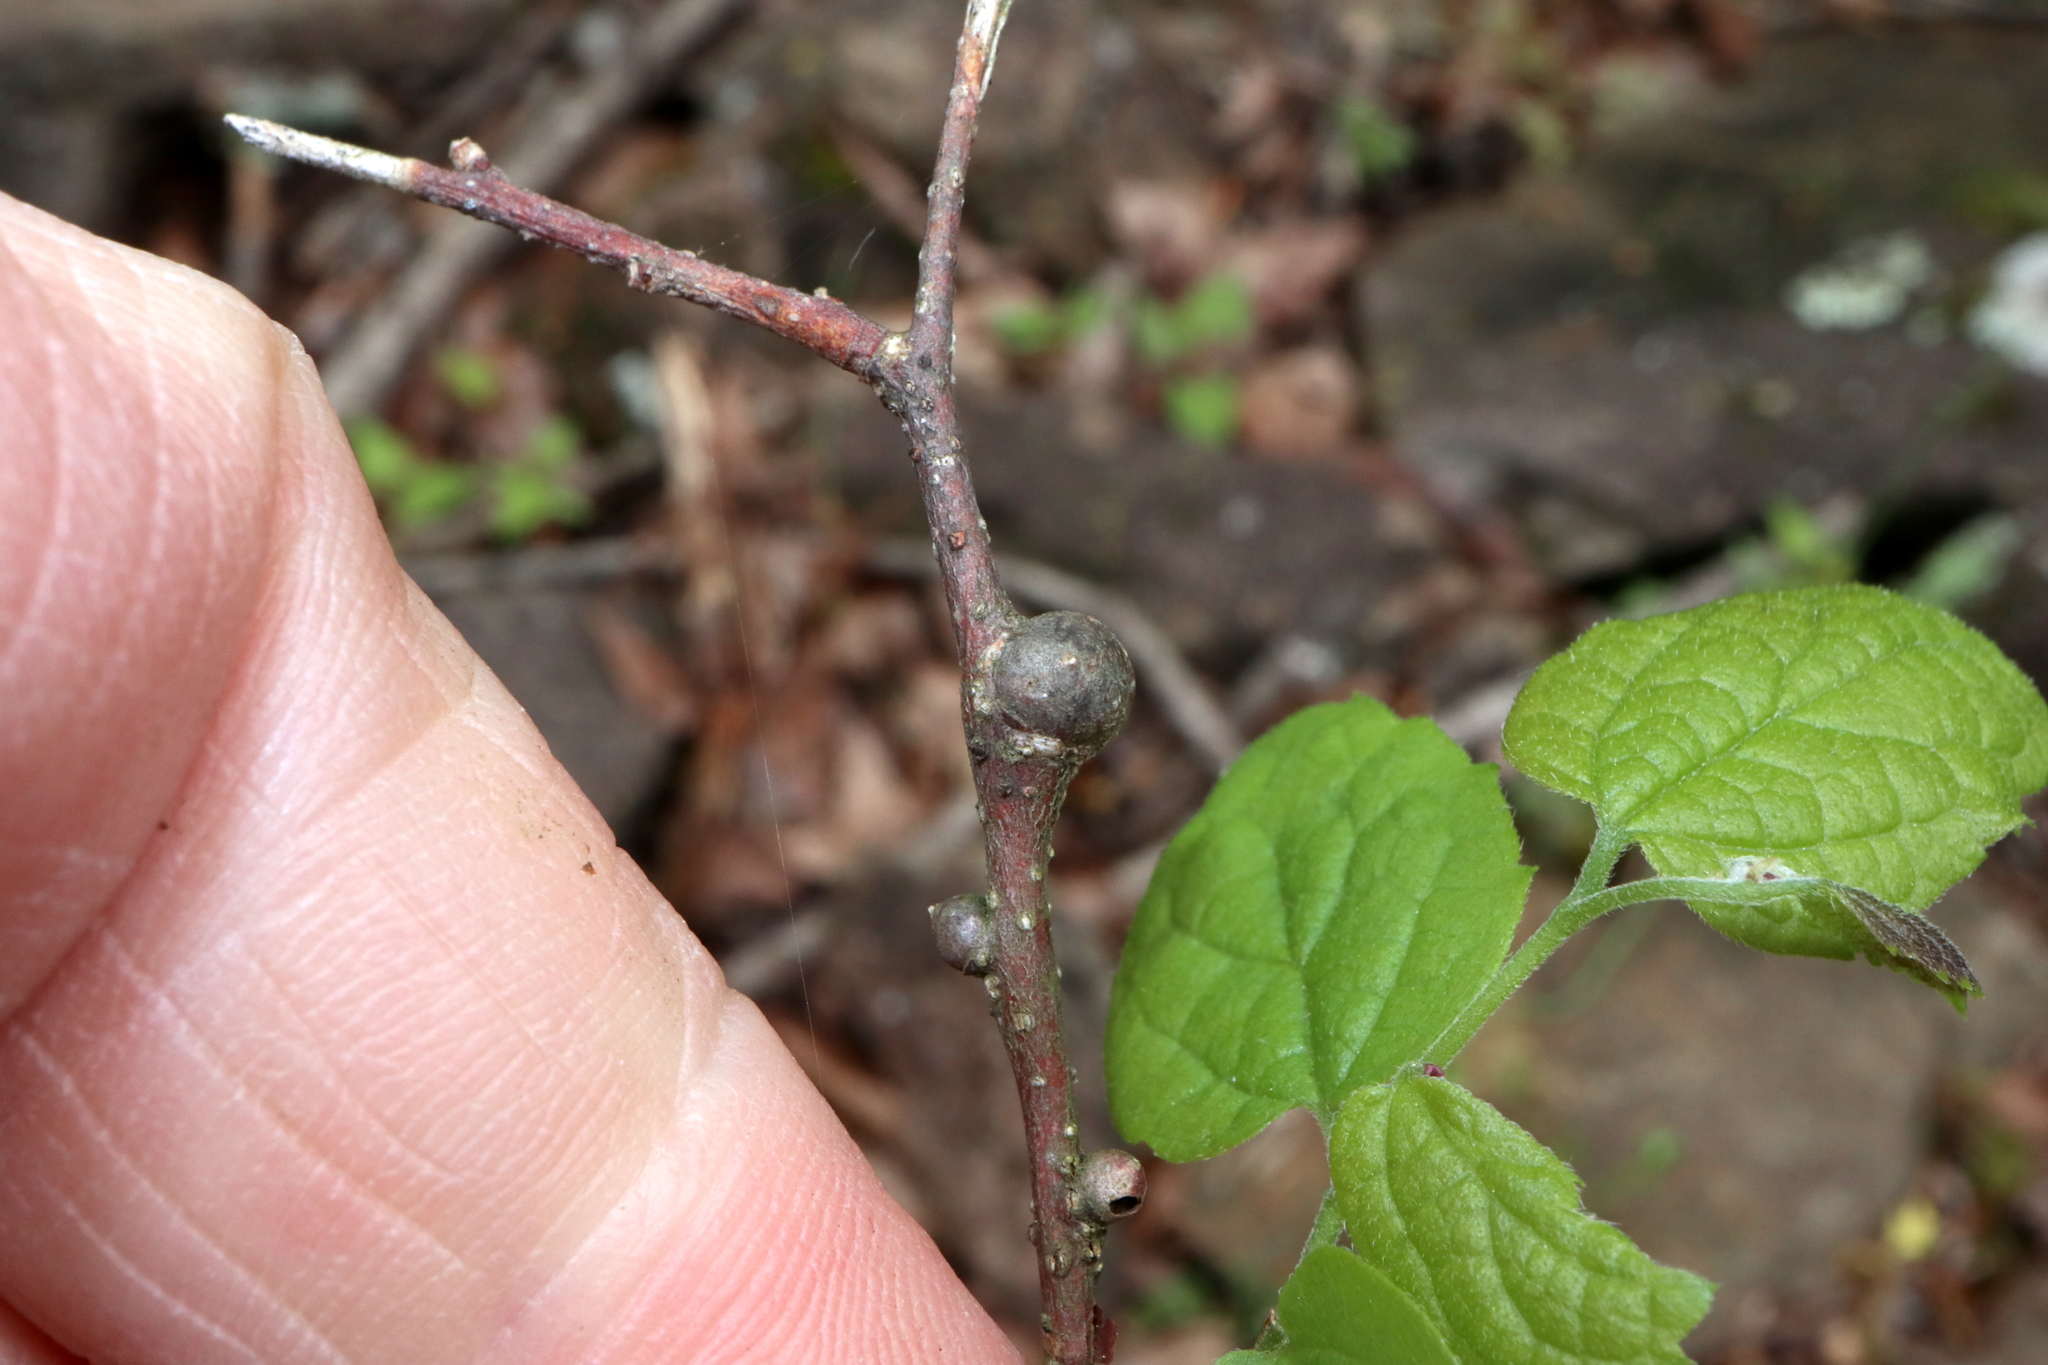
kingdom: Animalia
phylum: Arthropoda
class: Insecta
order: Hemiptera
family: Aphalaridae
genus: Pachypsylla
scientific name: Pachypsylla celtidisgemma
